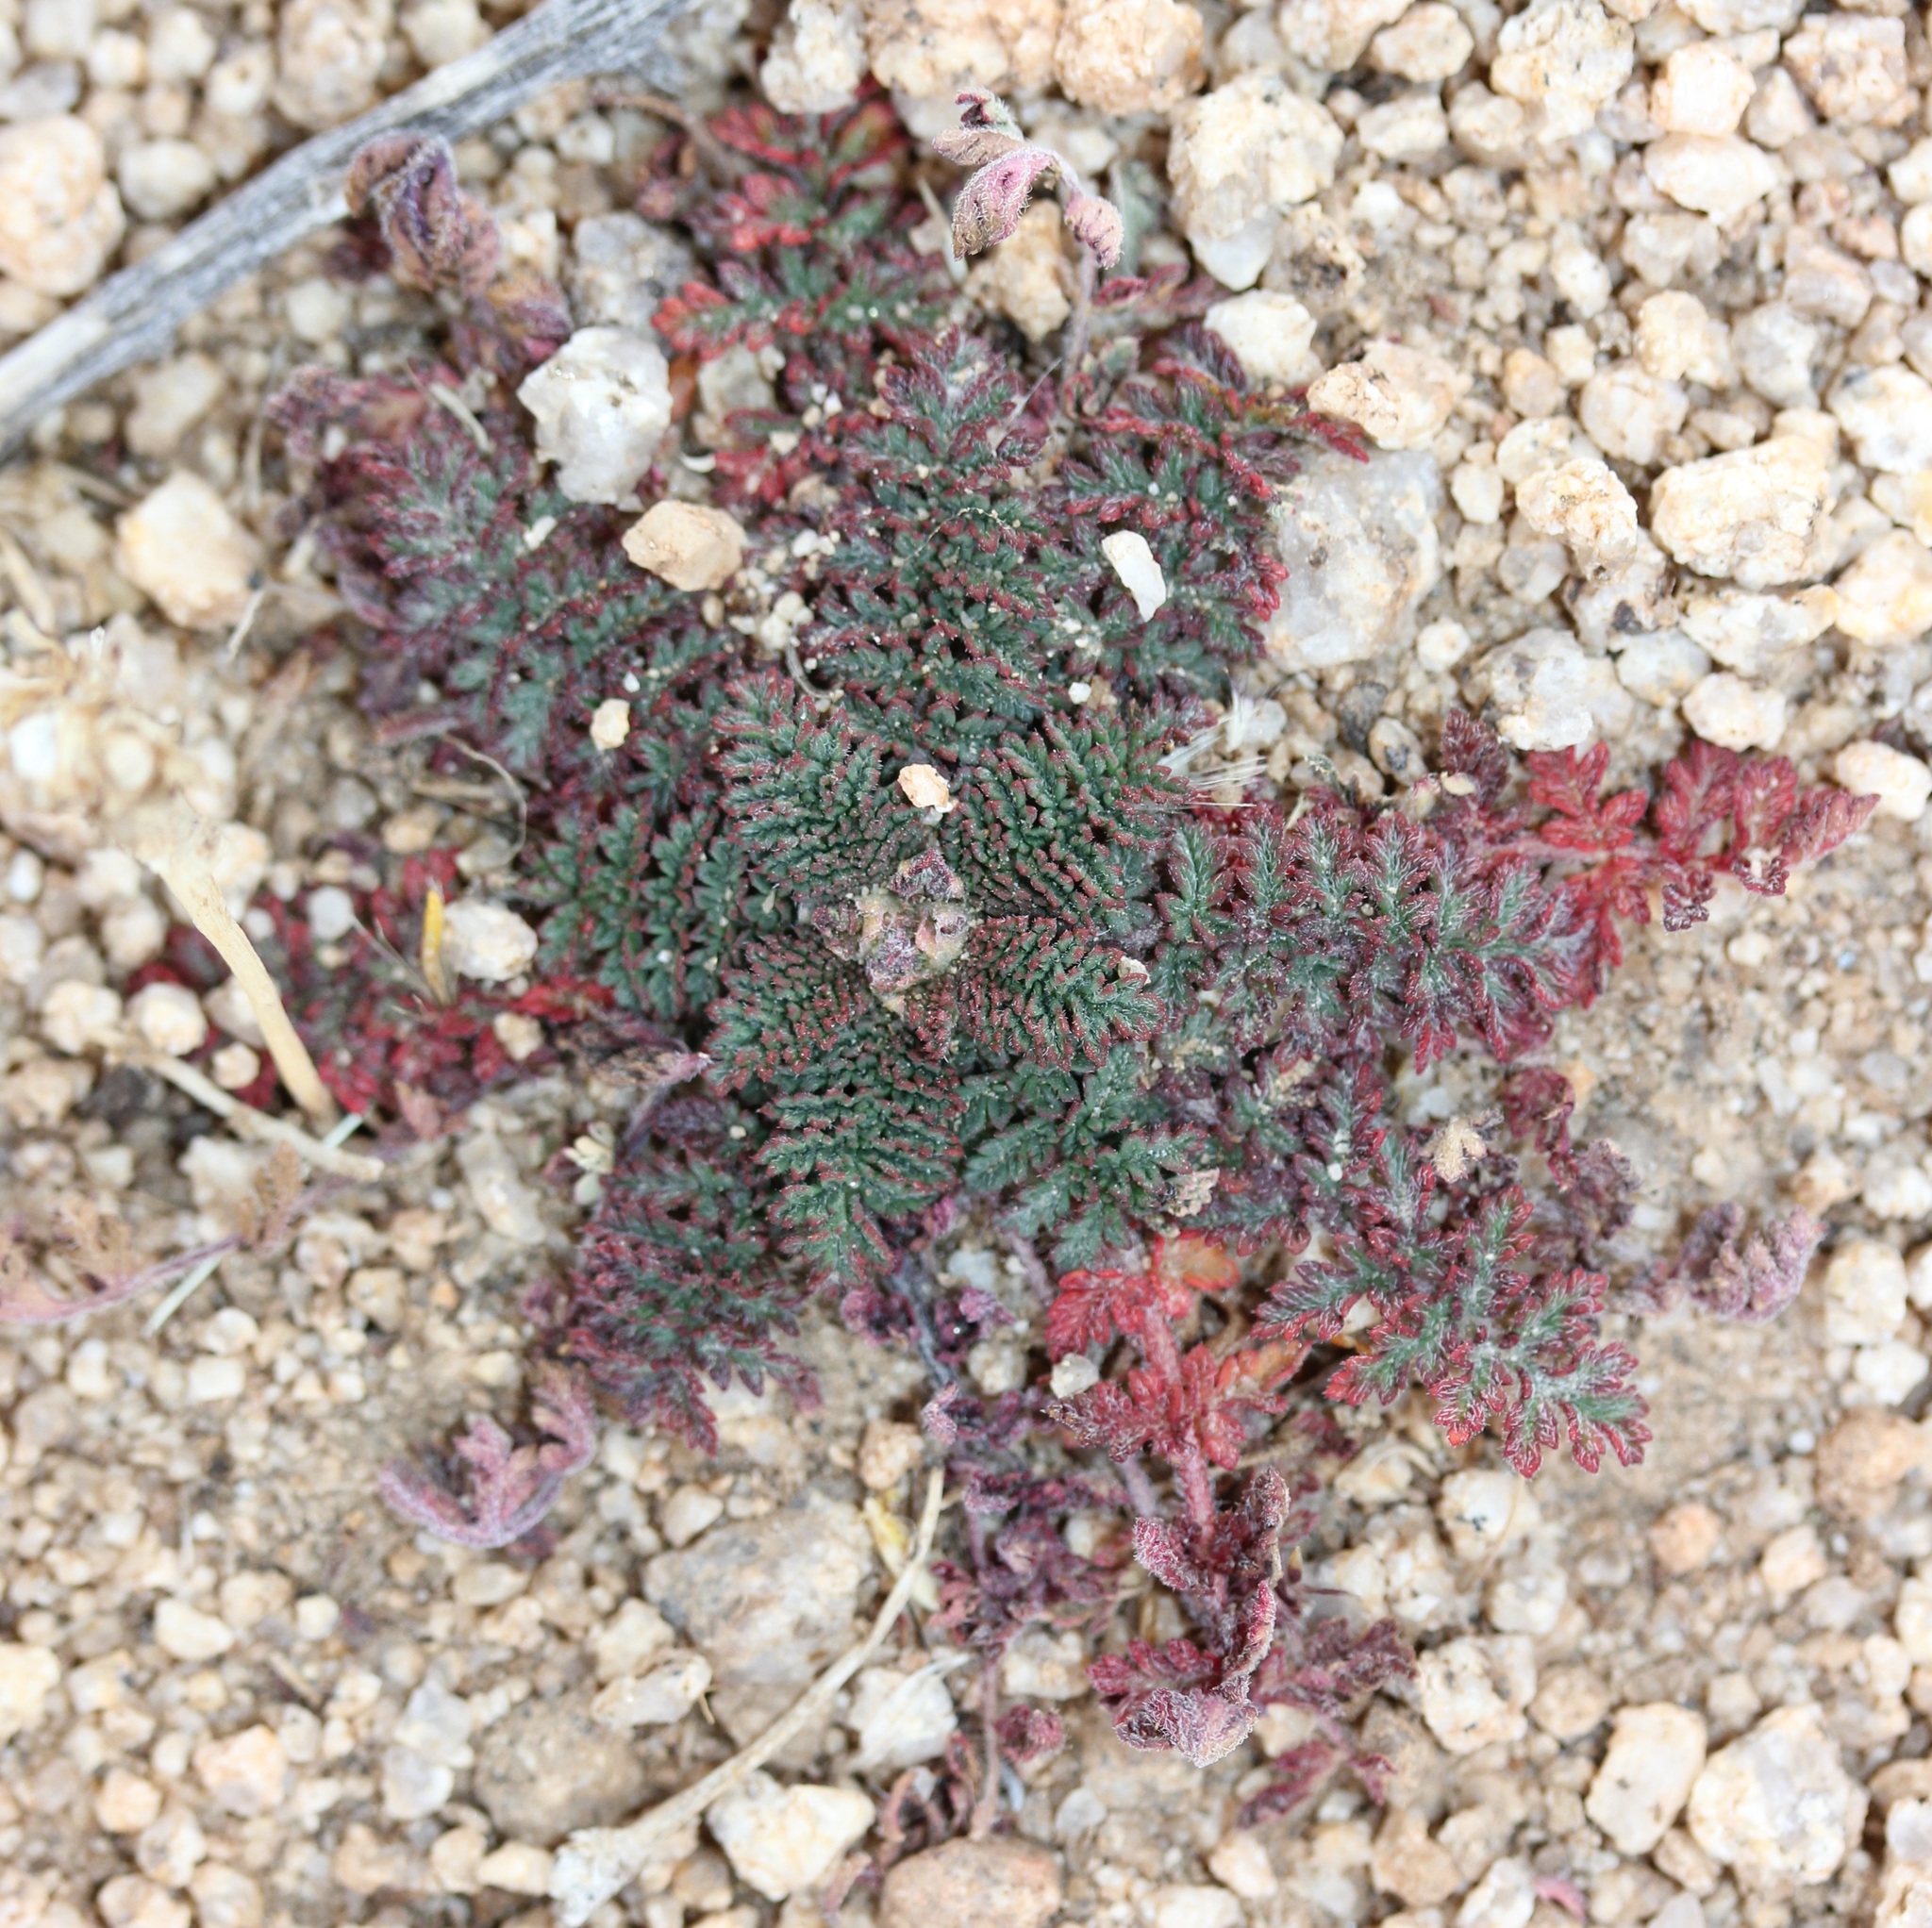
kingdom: Plantae
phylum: Tracheophyta
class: Magnoliopsida
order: Geraniales
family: Geraniaceae
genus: Erodium
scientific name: Erodium cicutarium
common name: Common stork's-bill
